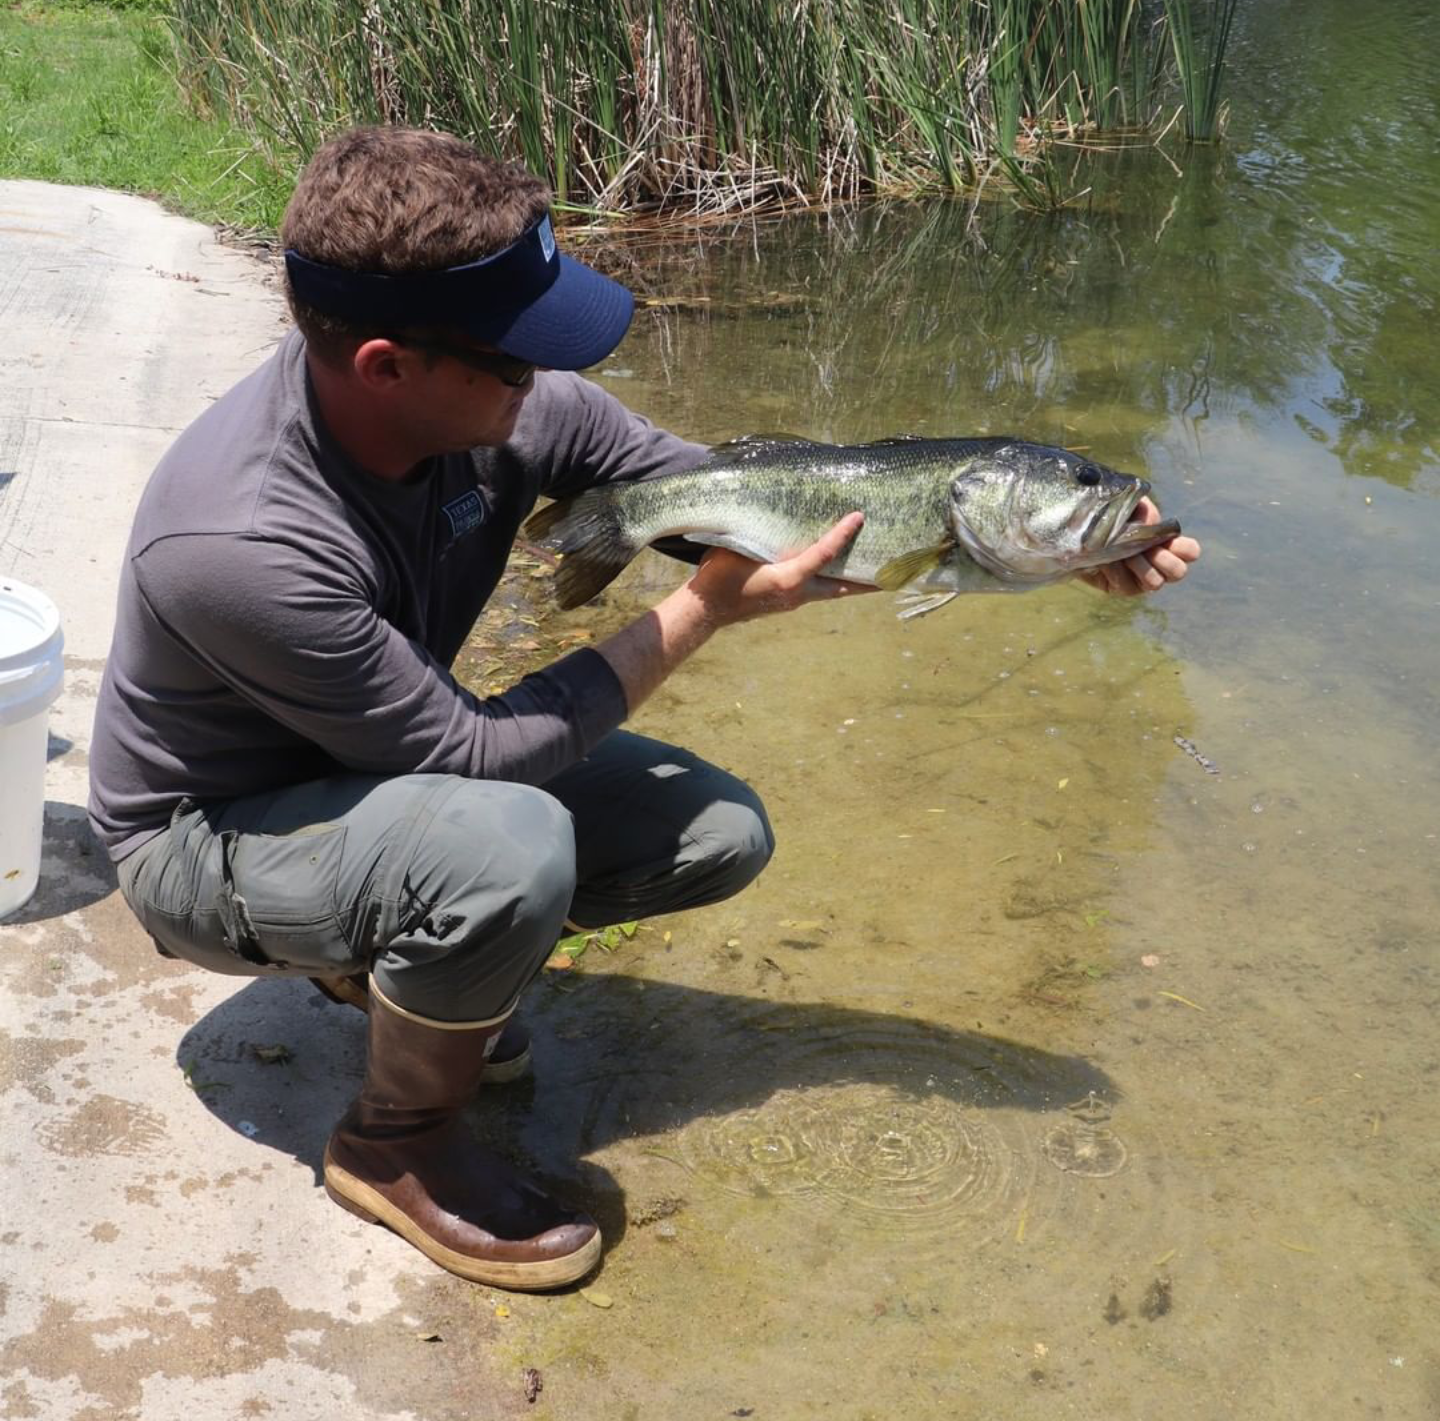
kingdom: Animalia
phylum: Chordata
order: Perciformes
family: Centrarchidae
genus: Micropterus
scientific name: Micropterus
